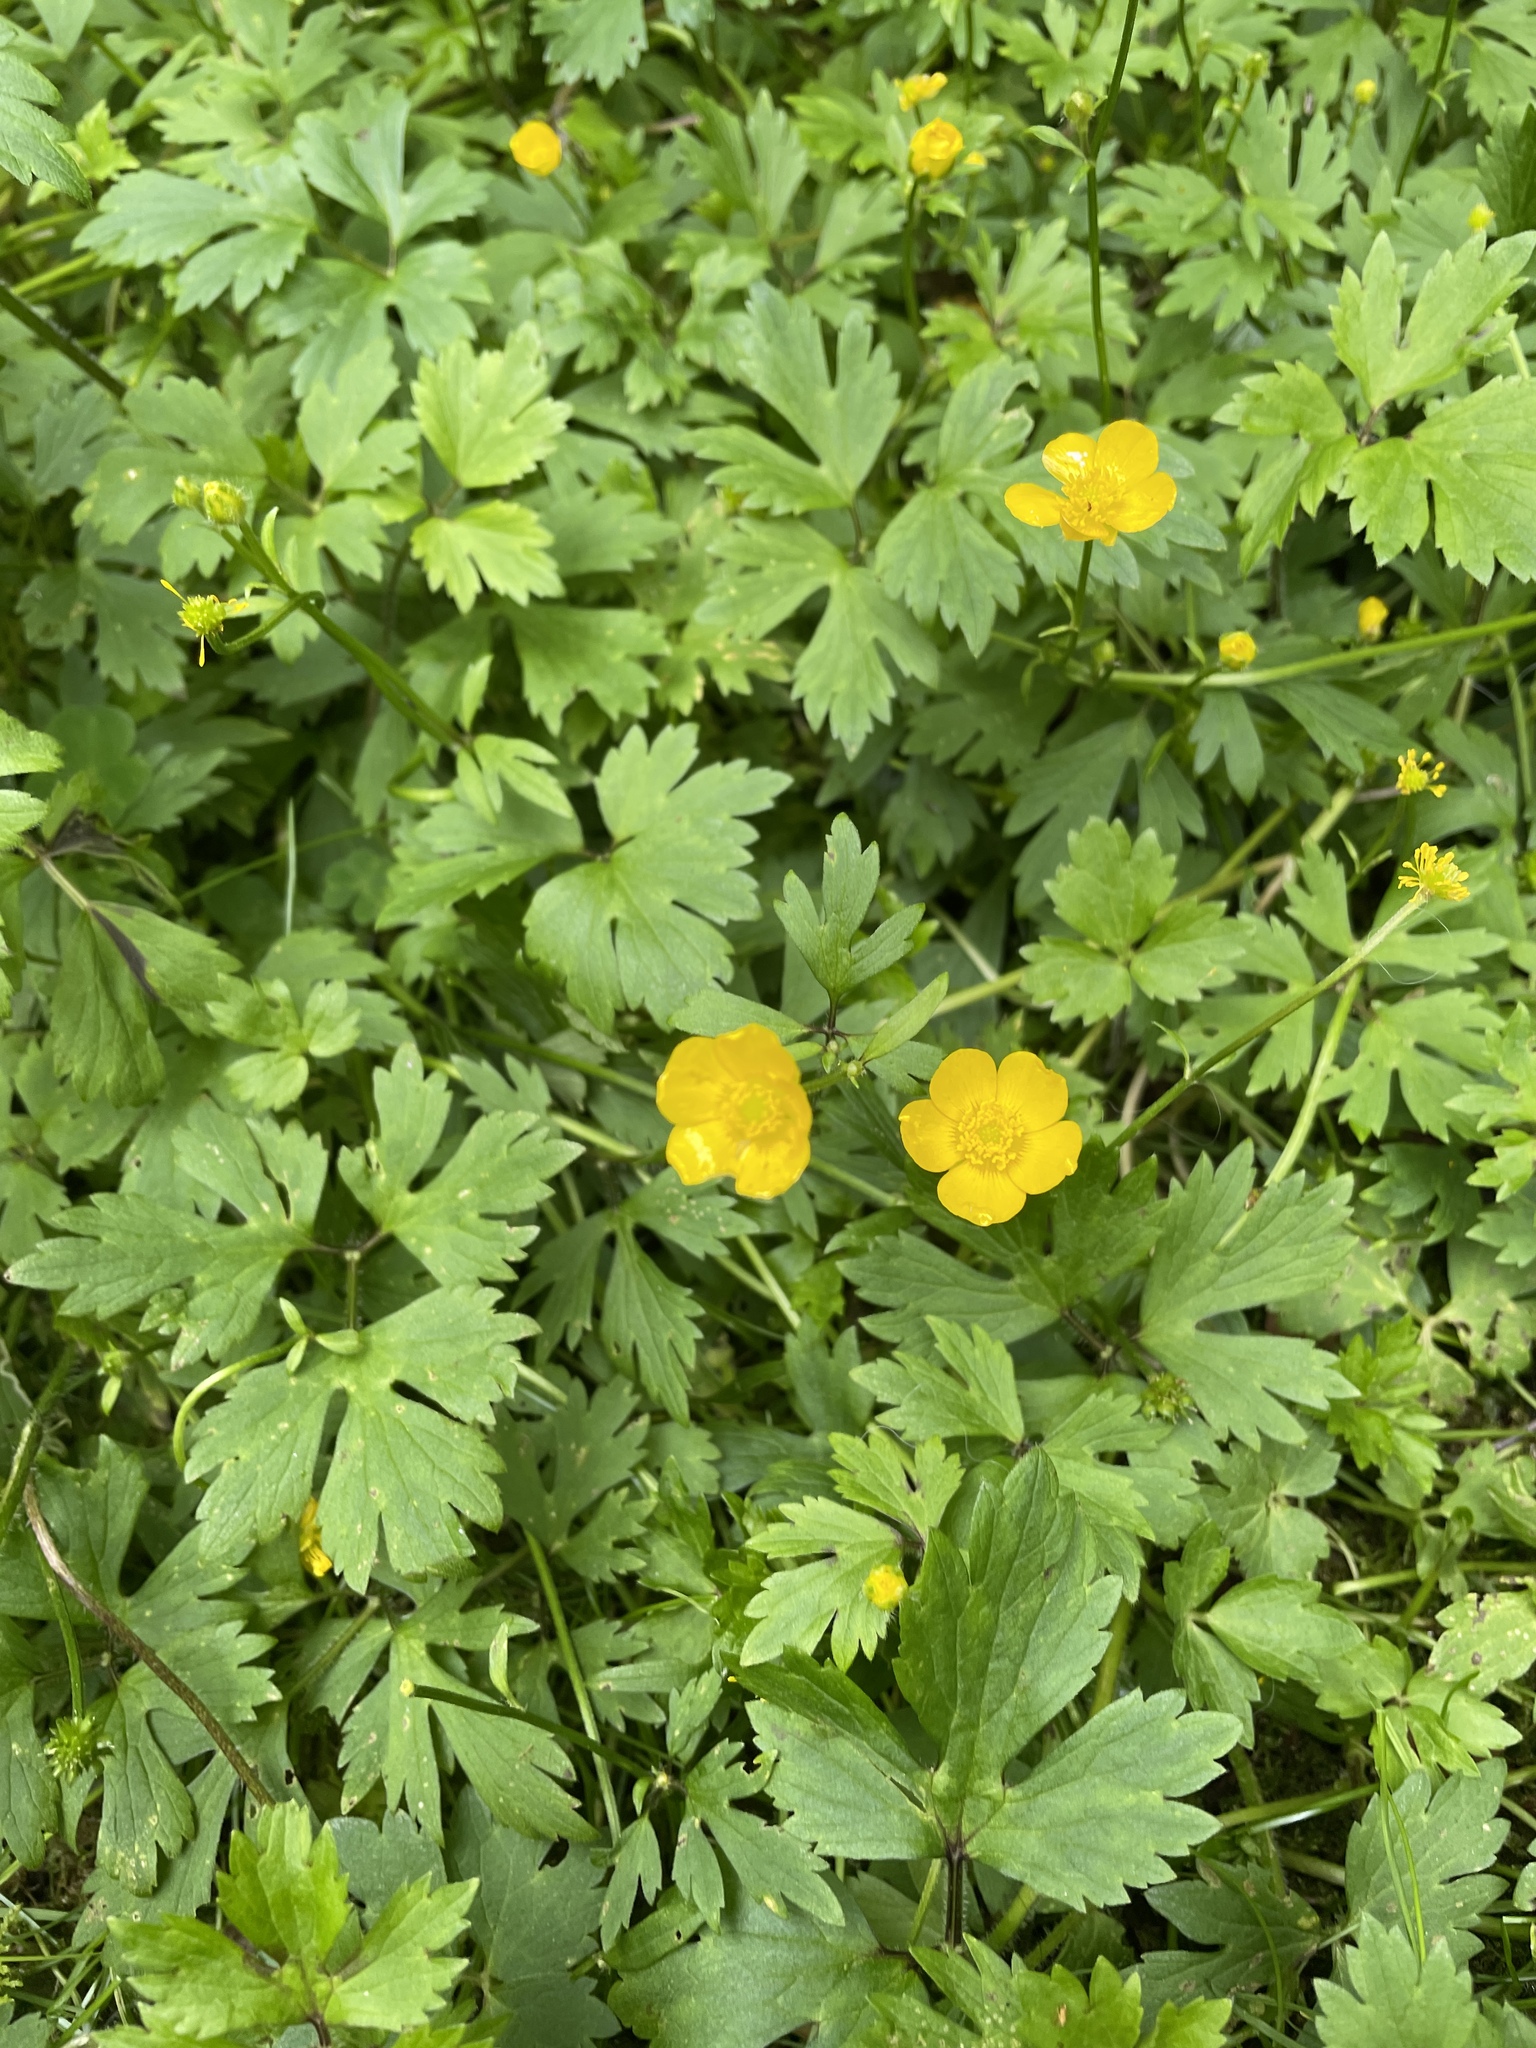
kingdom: Plantae
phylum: Tracheophyta
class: Magnoliopsida
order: Ranunculales
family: Ranunculaceae
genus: Ranunculus
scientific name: Ranunculus repens
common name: Creeping buttercup
